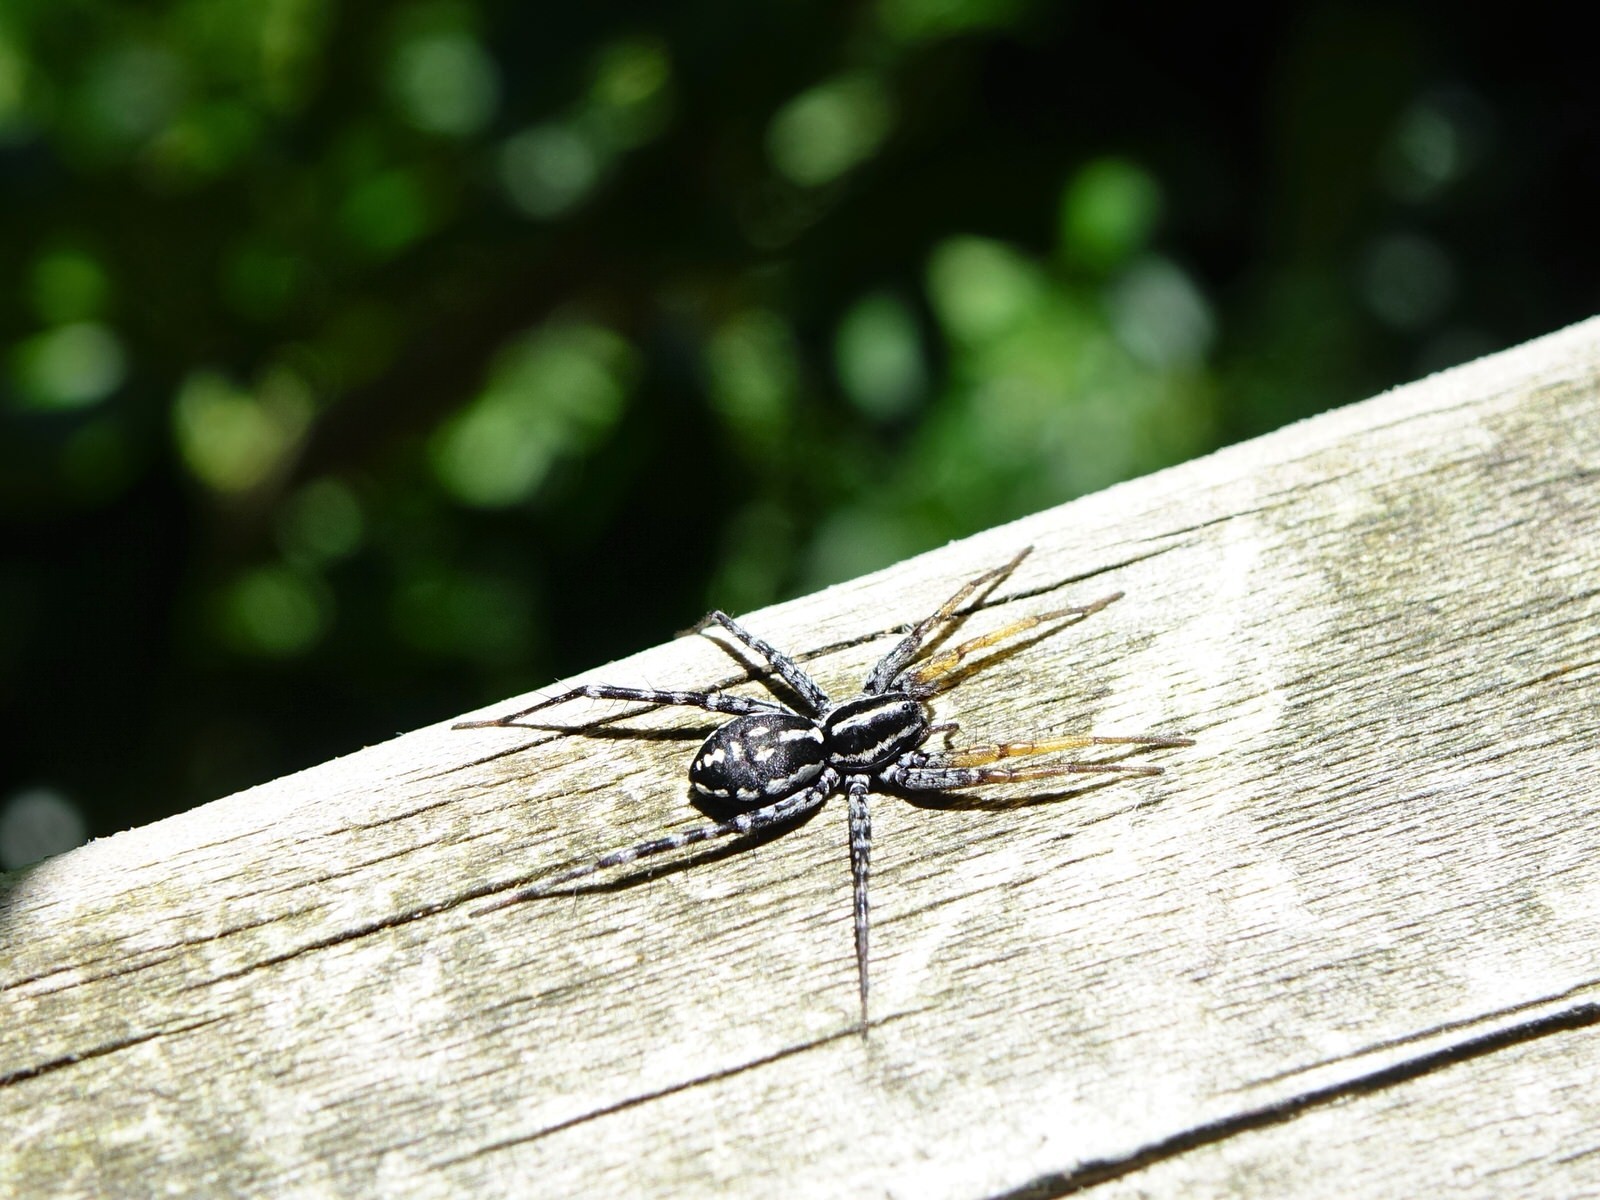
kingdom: Animalia
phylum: Arthropoda
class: Arachnida
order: Araneae
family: Corinnidae
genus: Nyssus
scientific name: Nyssus coloripes
